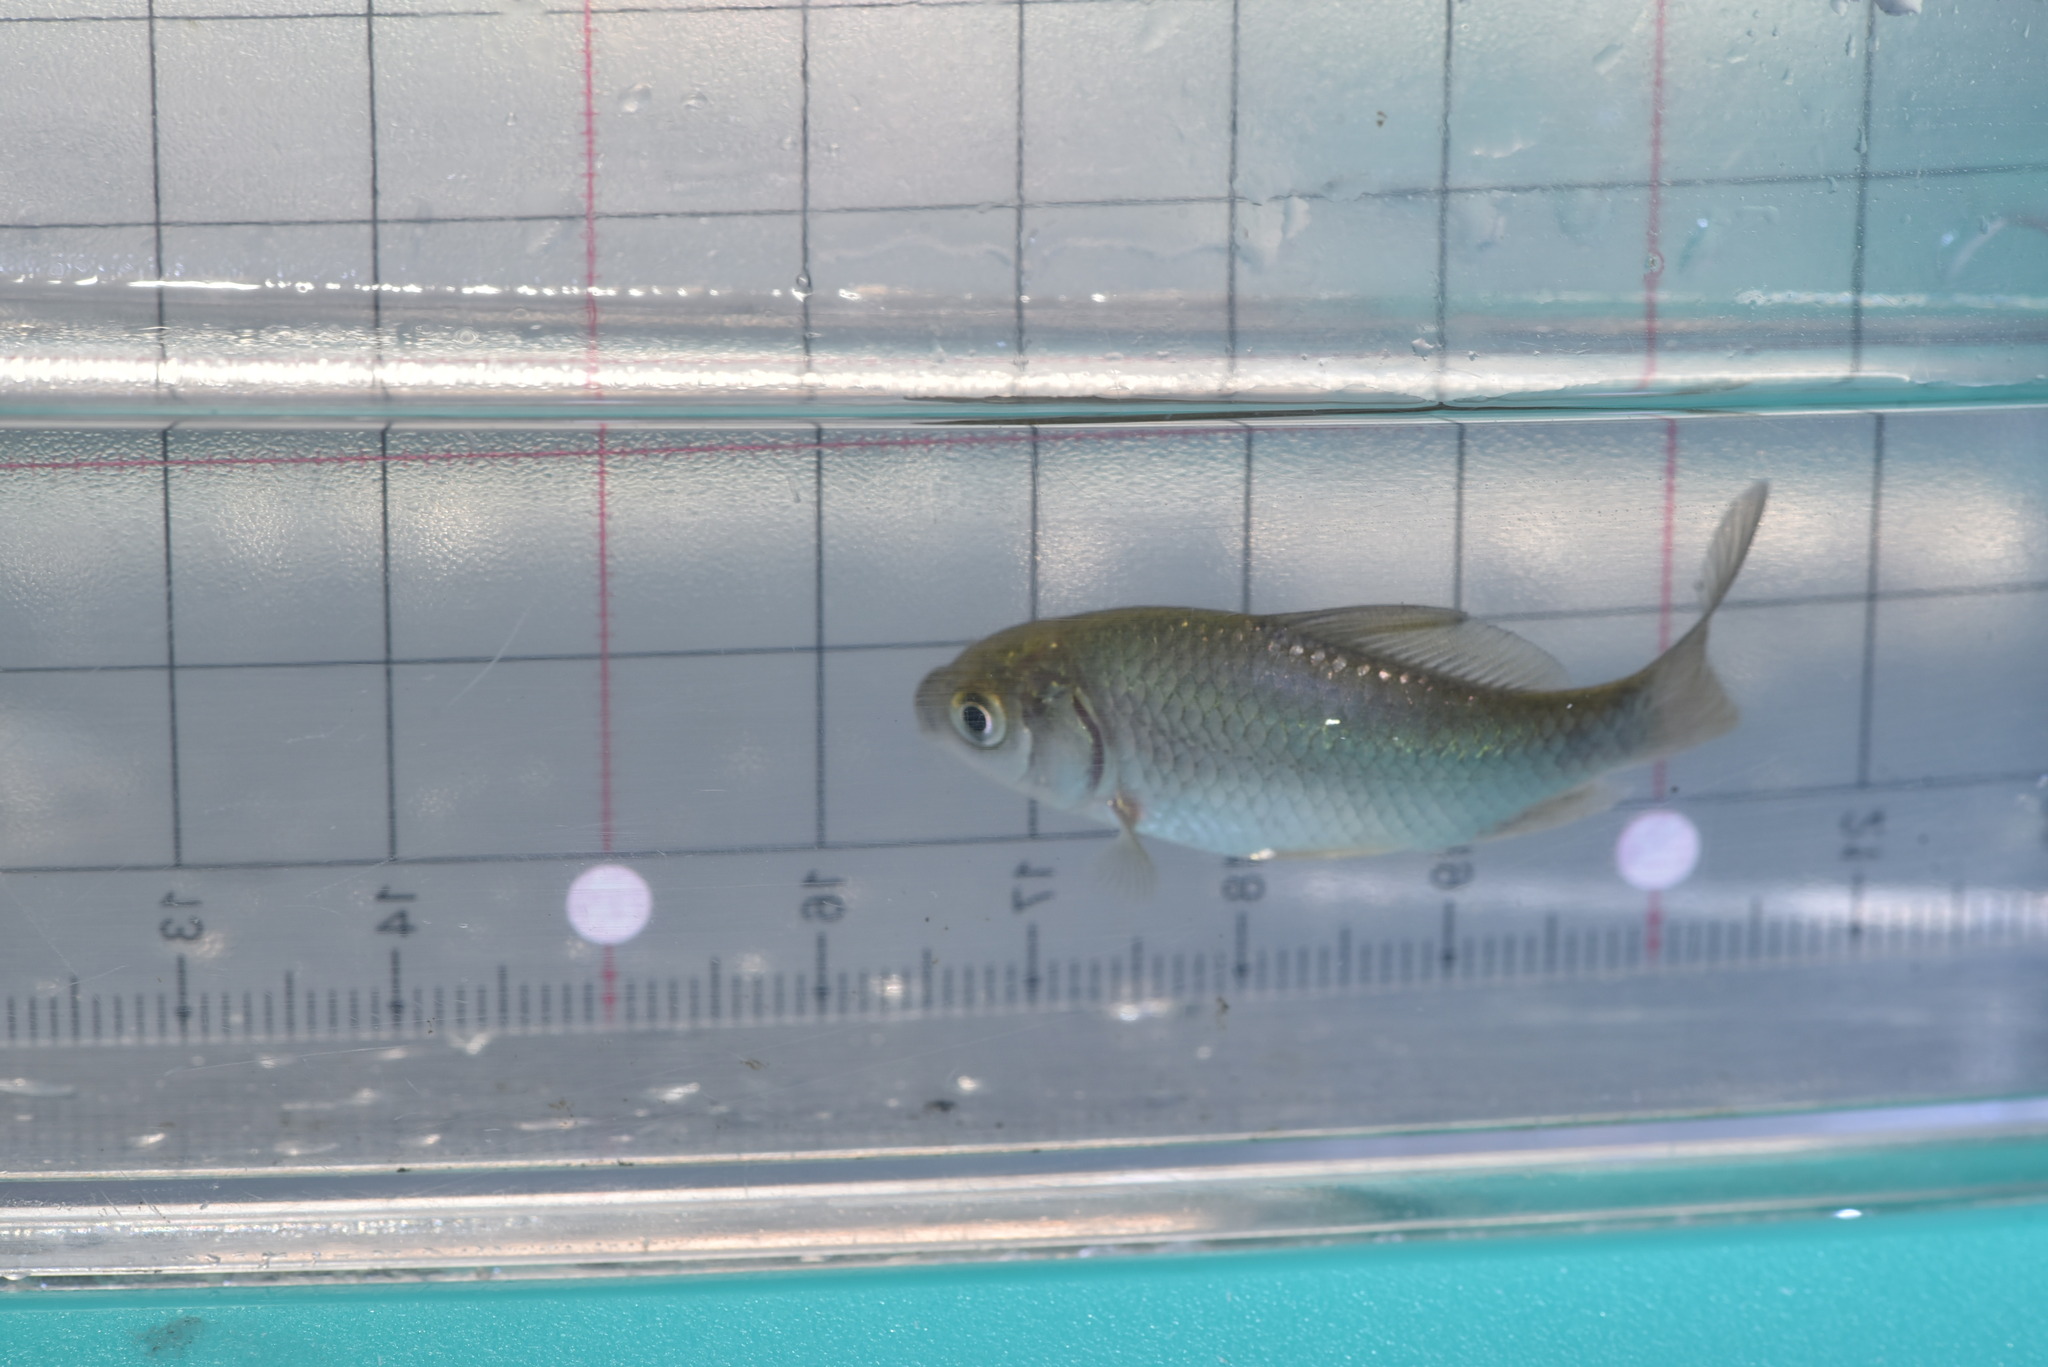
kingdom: Animalia
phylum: Chordata
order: Cypriniformes
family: Cyprinidae
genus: Carassius
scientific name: Carassius auratus
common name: Goldfish
